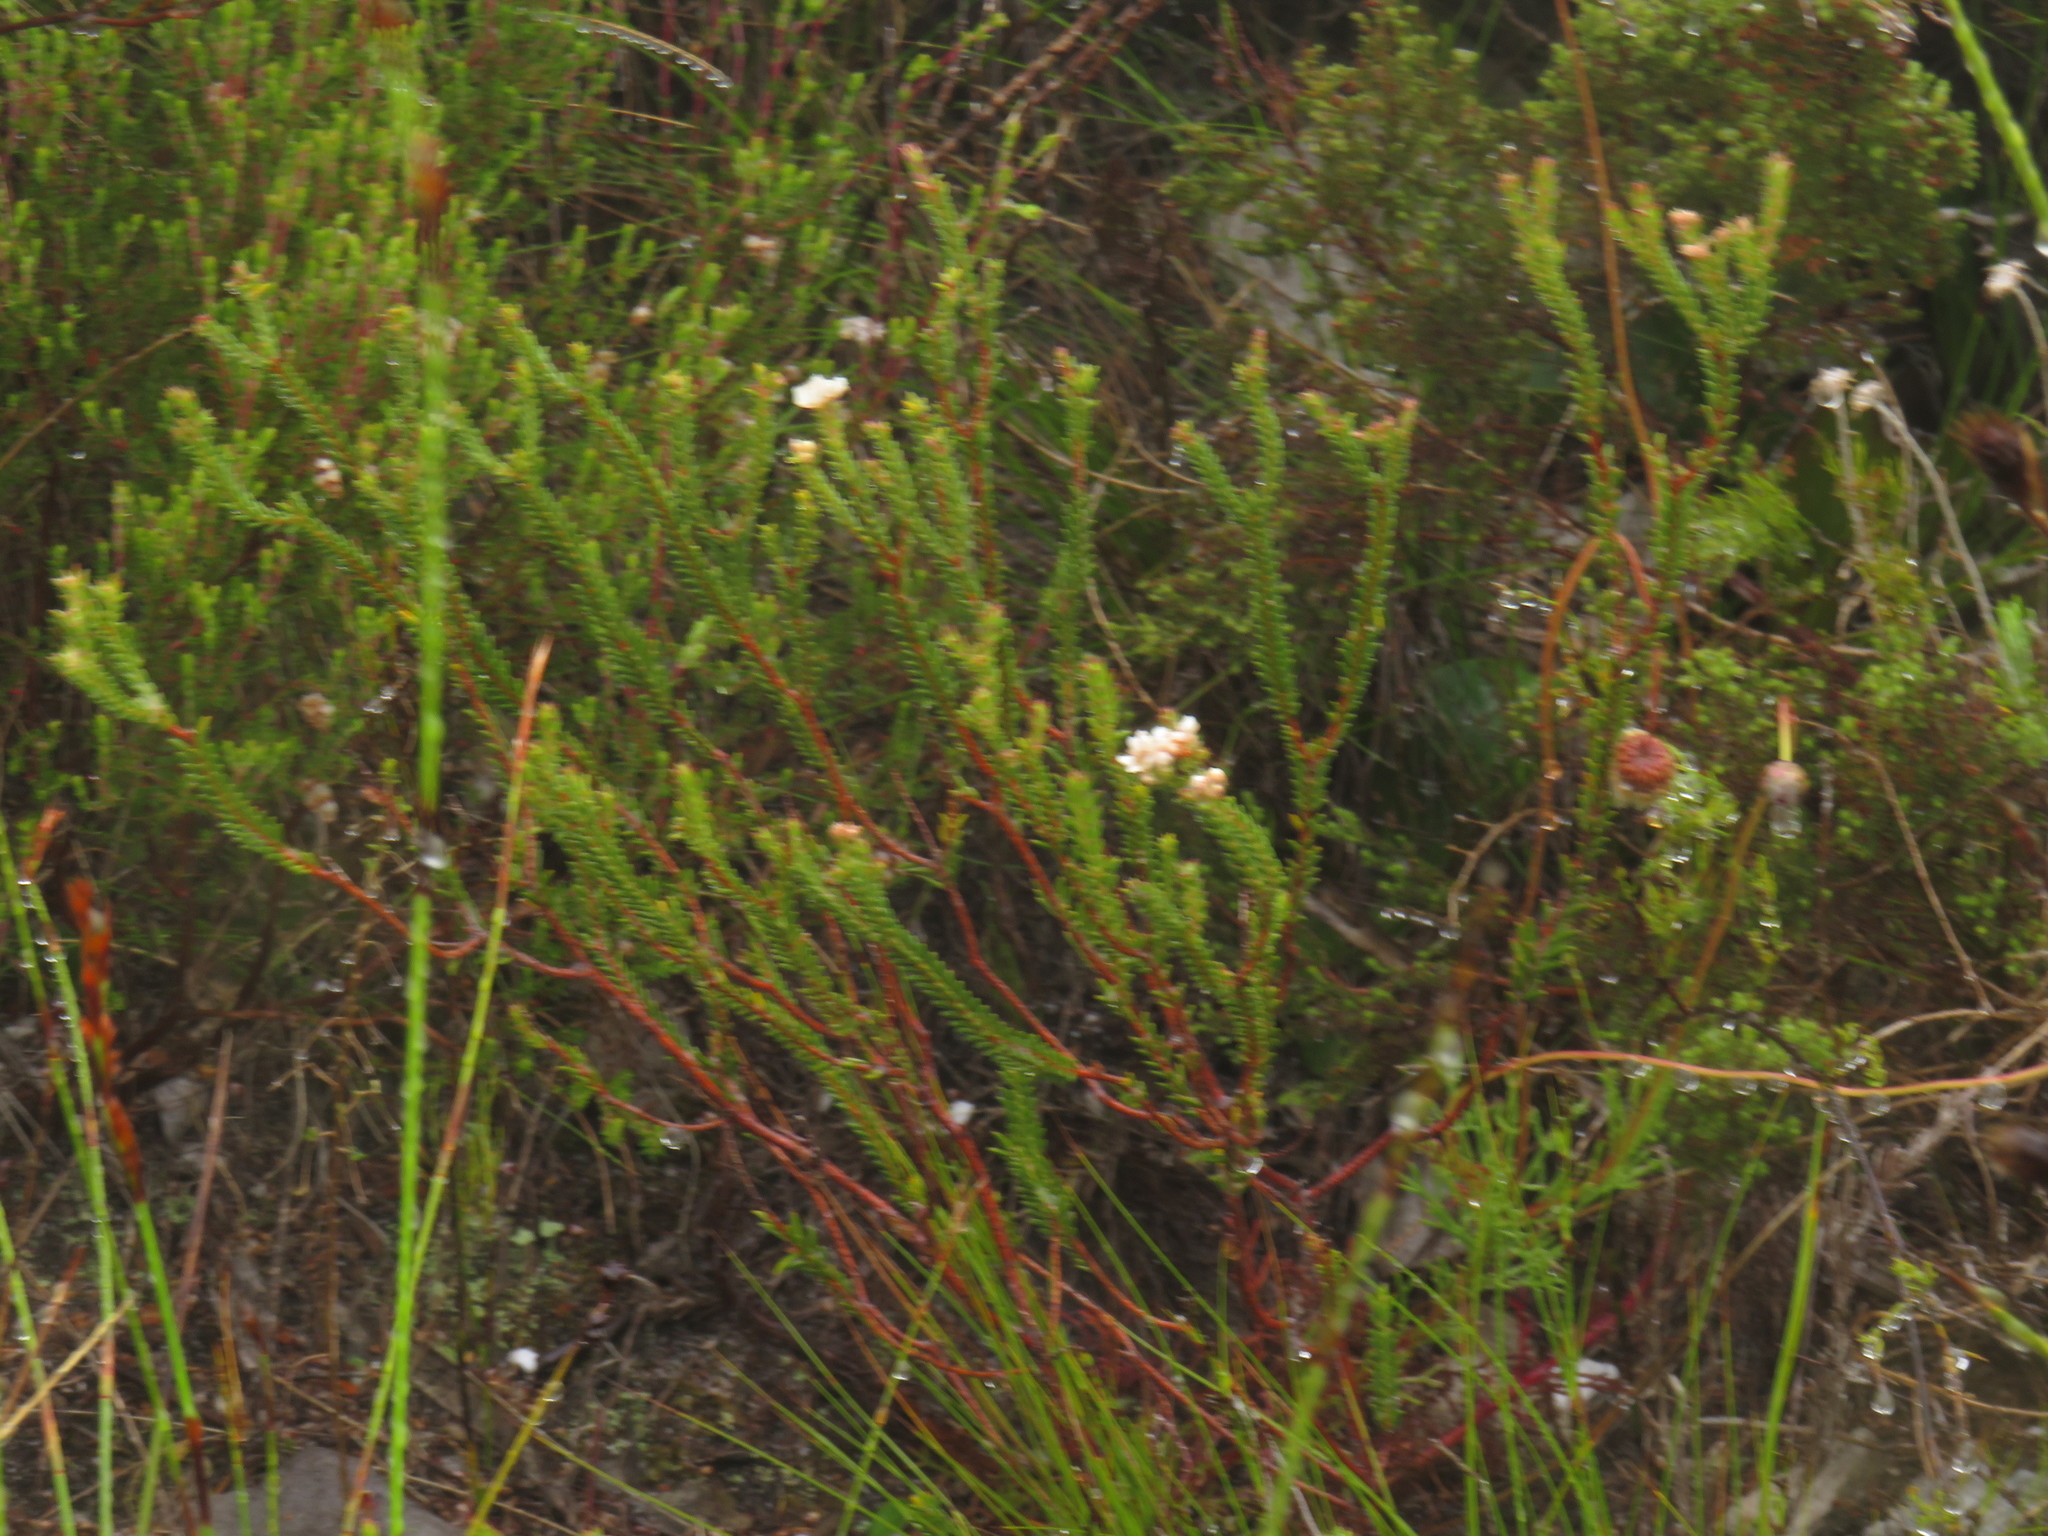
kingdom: Plantae
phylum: Tracheophyta
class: Magnoliopsida
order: Sapindales
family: Rutaceae
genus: Diosma
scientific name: Diosma oppositifolia
